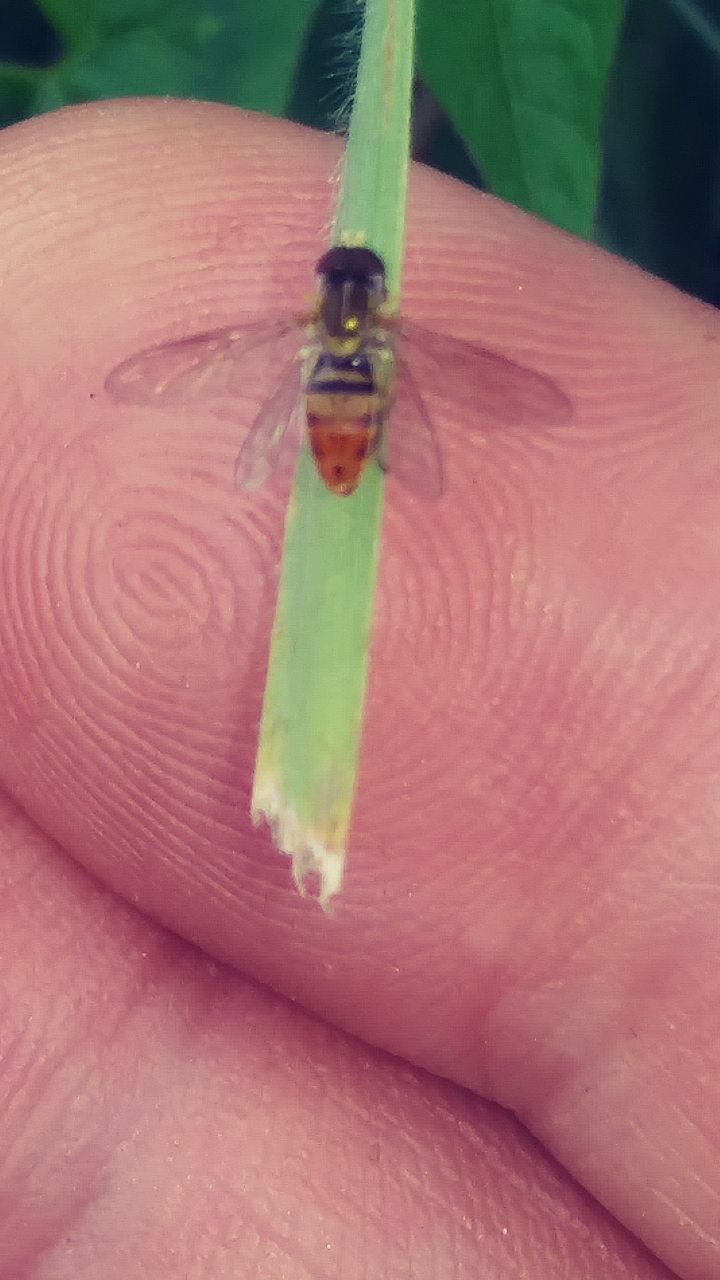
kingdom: Animalia
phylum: Arthropoda
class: Insecta
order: Diptera
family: Syrphidae
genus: Toxomerus
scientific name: Toxomerus marginatus
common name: Syrphid fly
